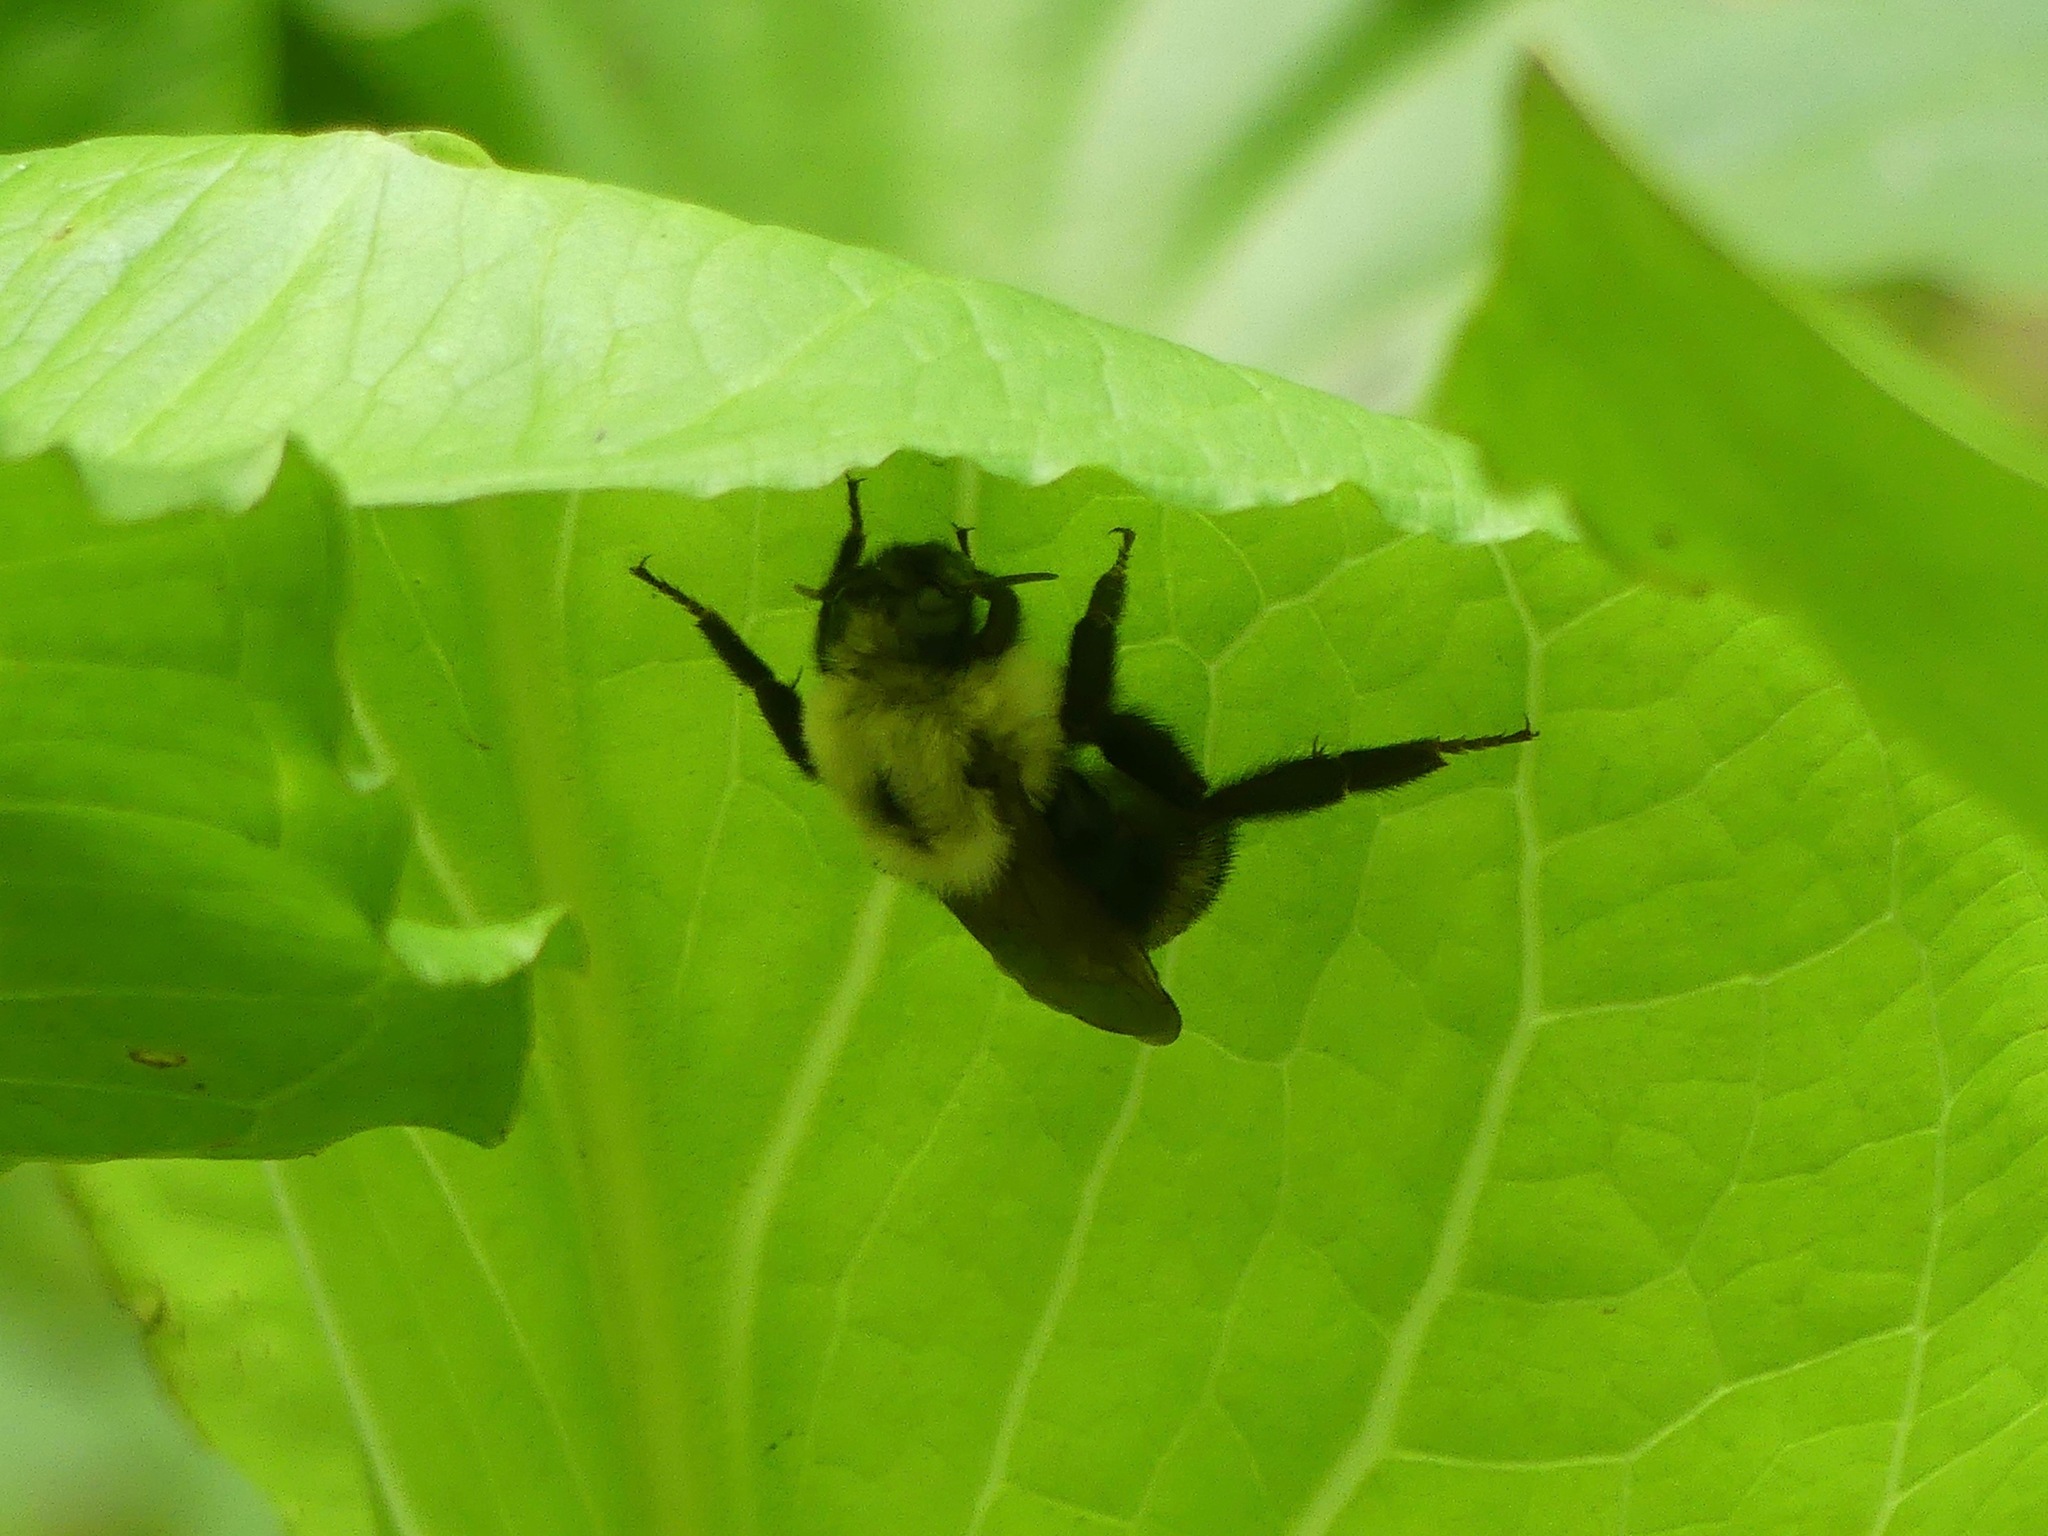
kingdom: Animalia
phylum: Arthropoda
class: Insecta
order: Hymenoptera
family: Apidae
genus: Bombus
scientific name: Bombus citrinus
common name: Lemon cuckoo bumble bee
